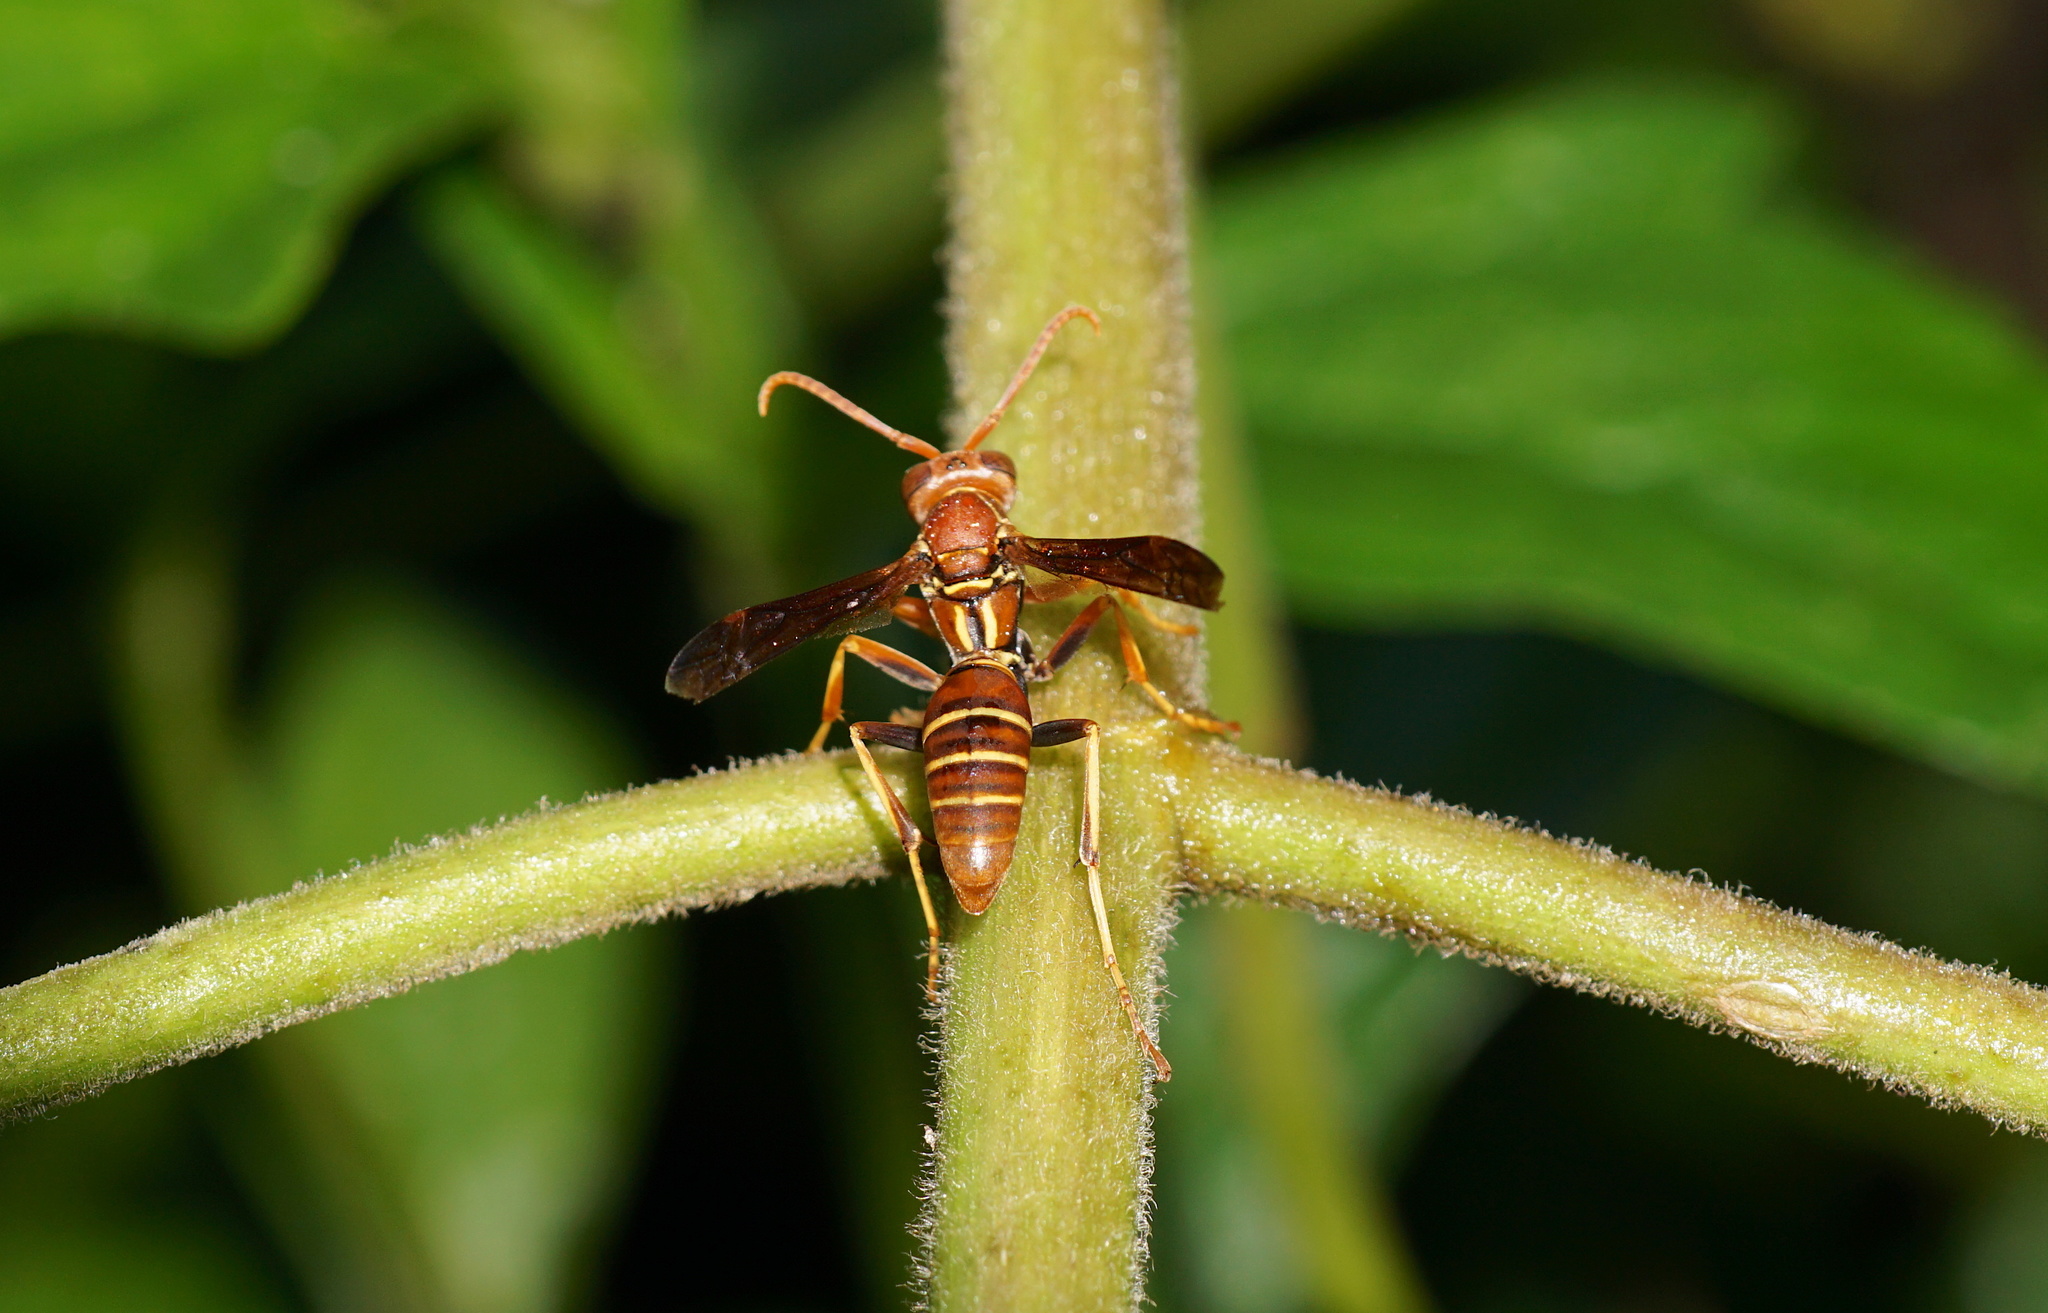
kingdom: Animalia
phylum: Arthropoda
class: Insecta
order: Hymenoptera
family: Eumenidae
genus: Polistes
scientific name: Polistes dorsalis
